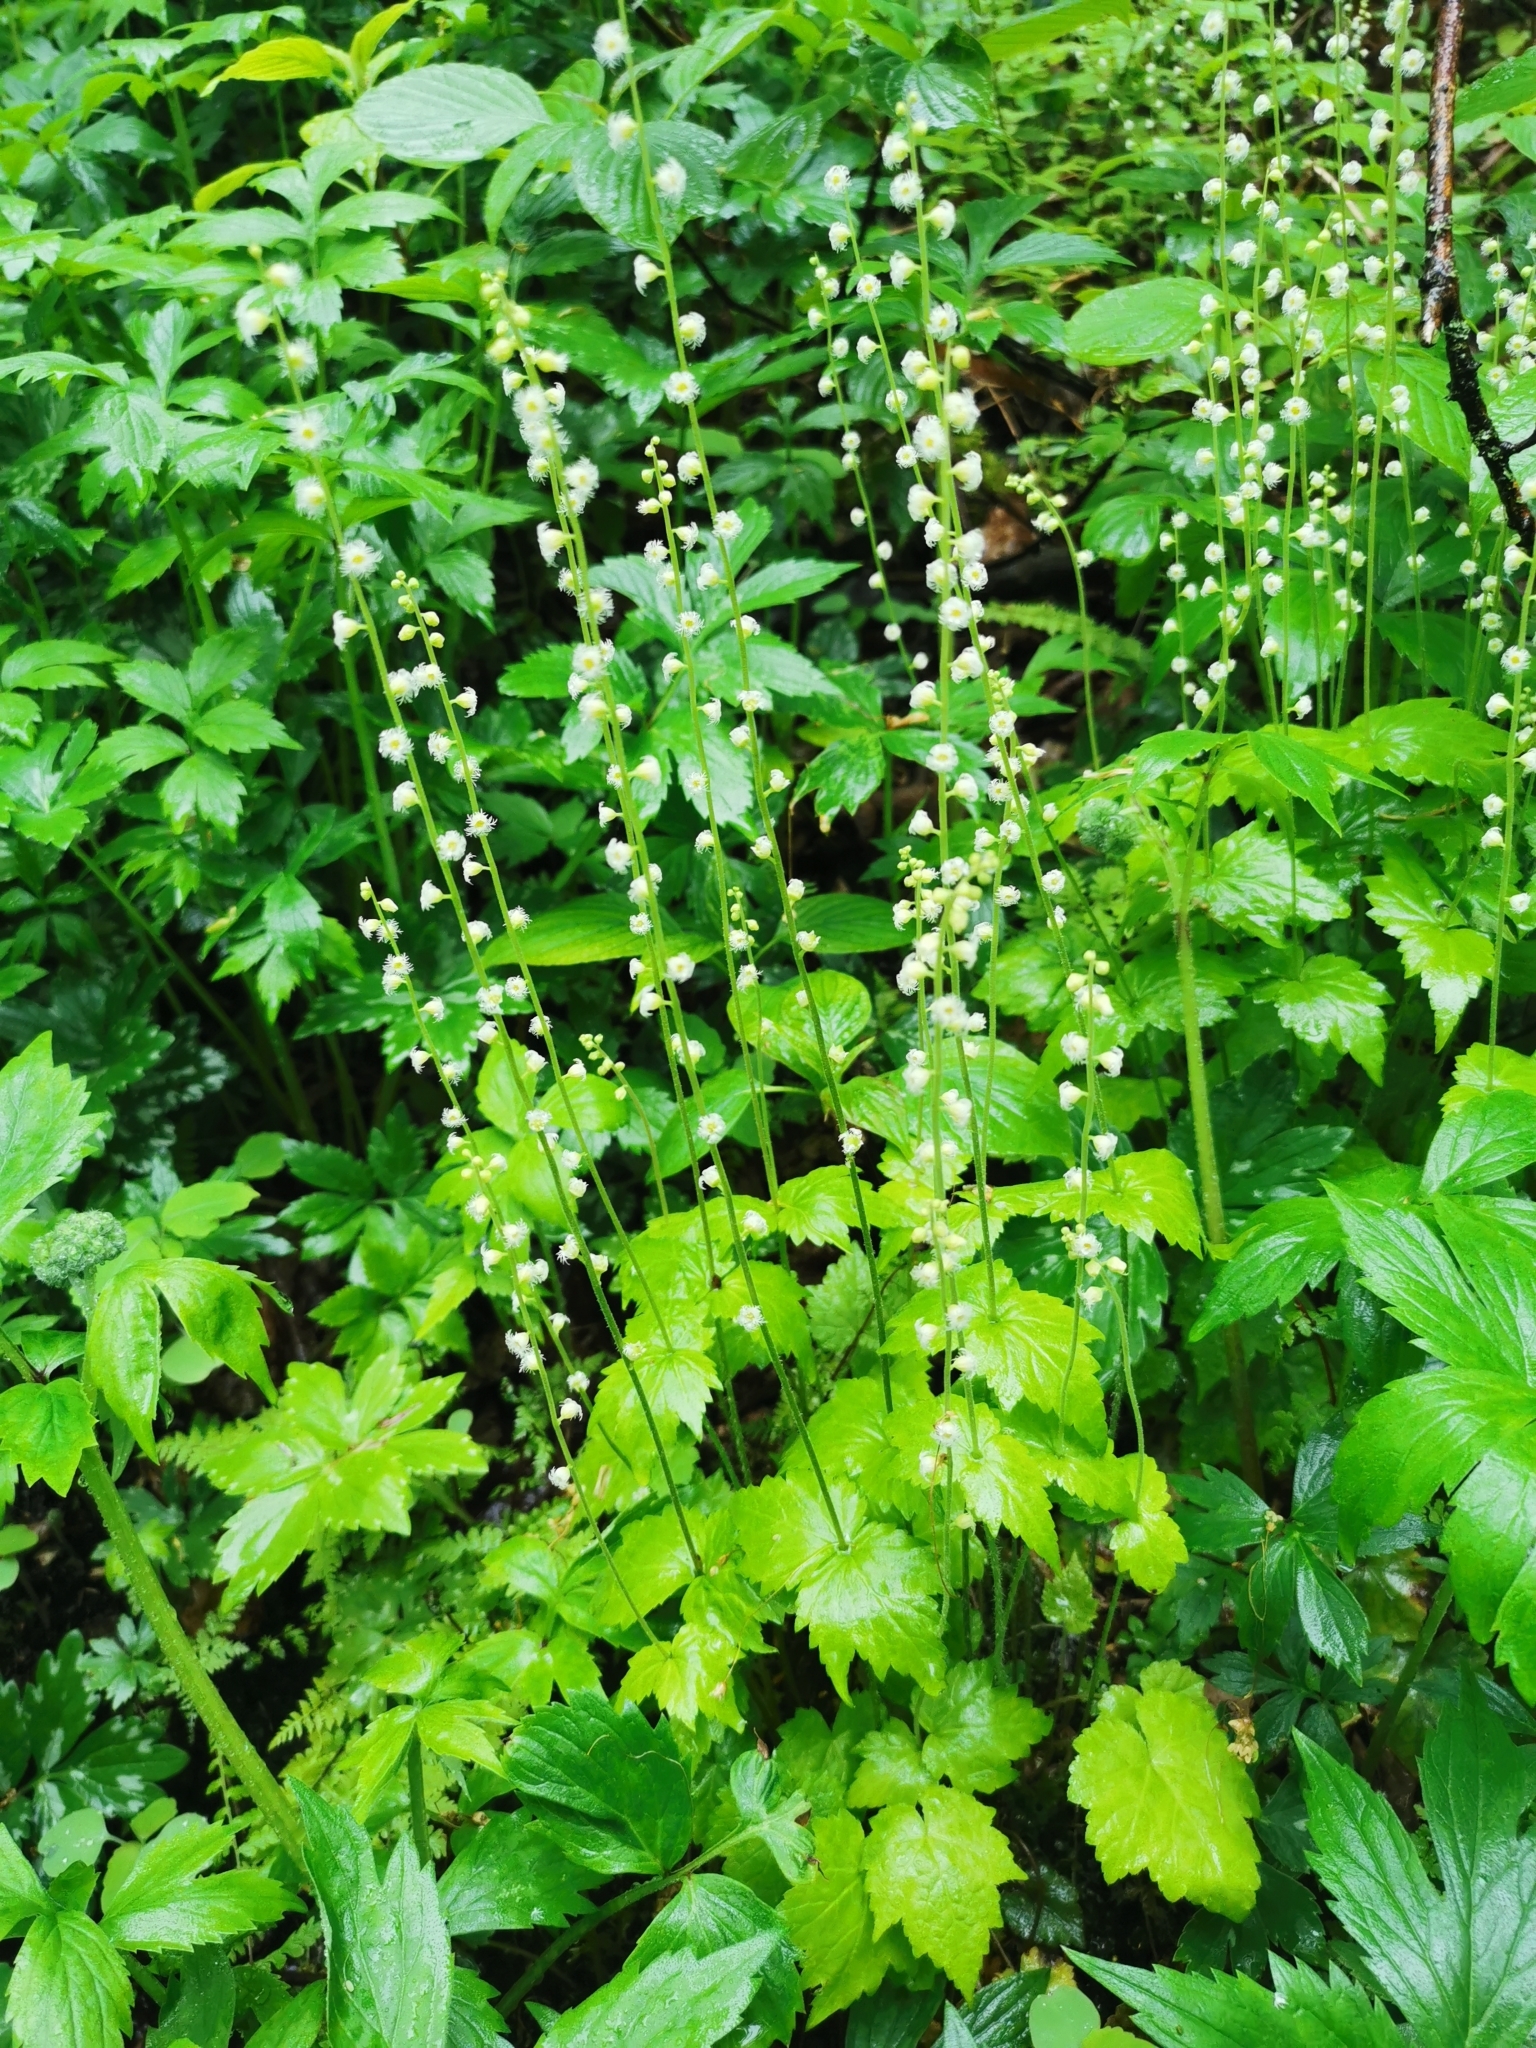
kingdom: Plantae
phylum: Tracheophyta
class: Magnoliopsida
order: Saxifragales
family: Saxifragaceae
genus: Mitella
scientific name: Mitella diphylla
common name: Coolwort
